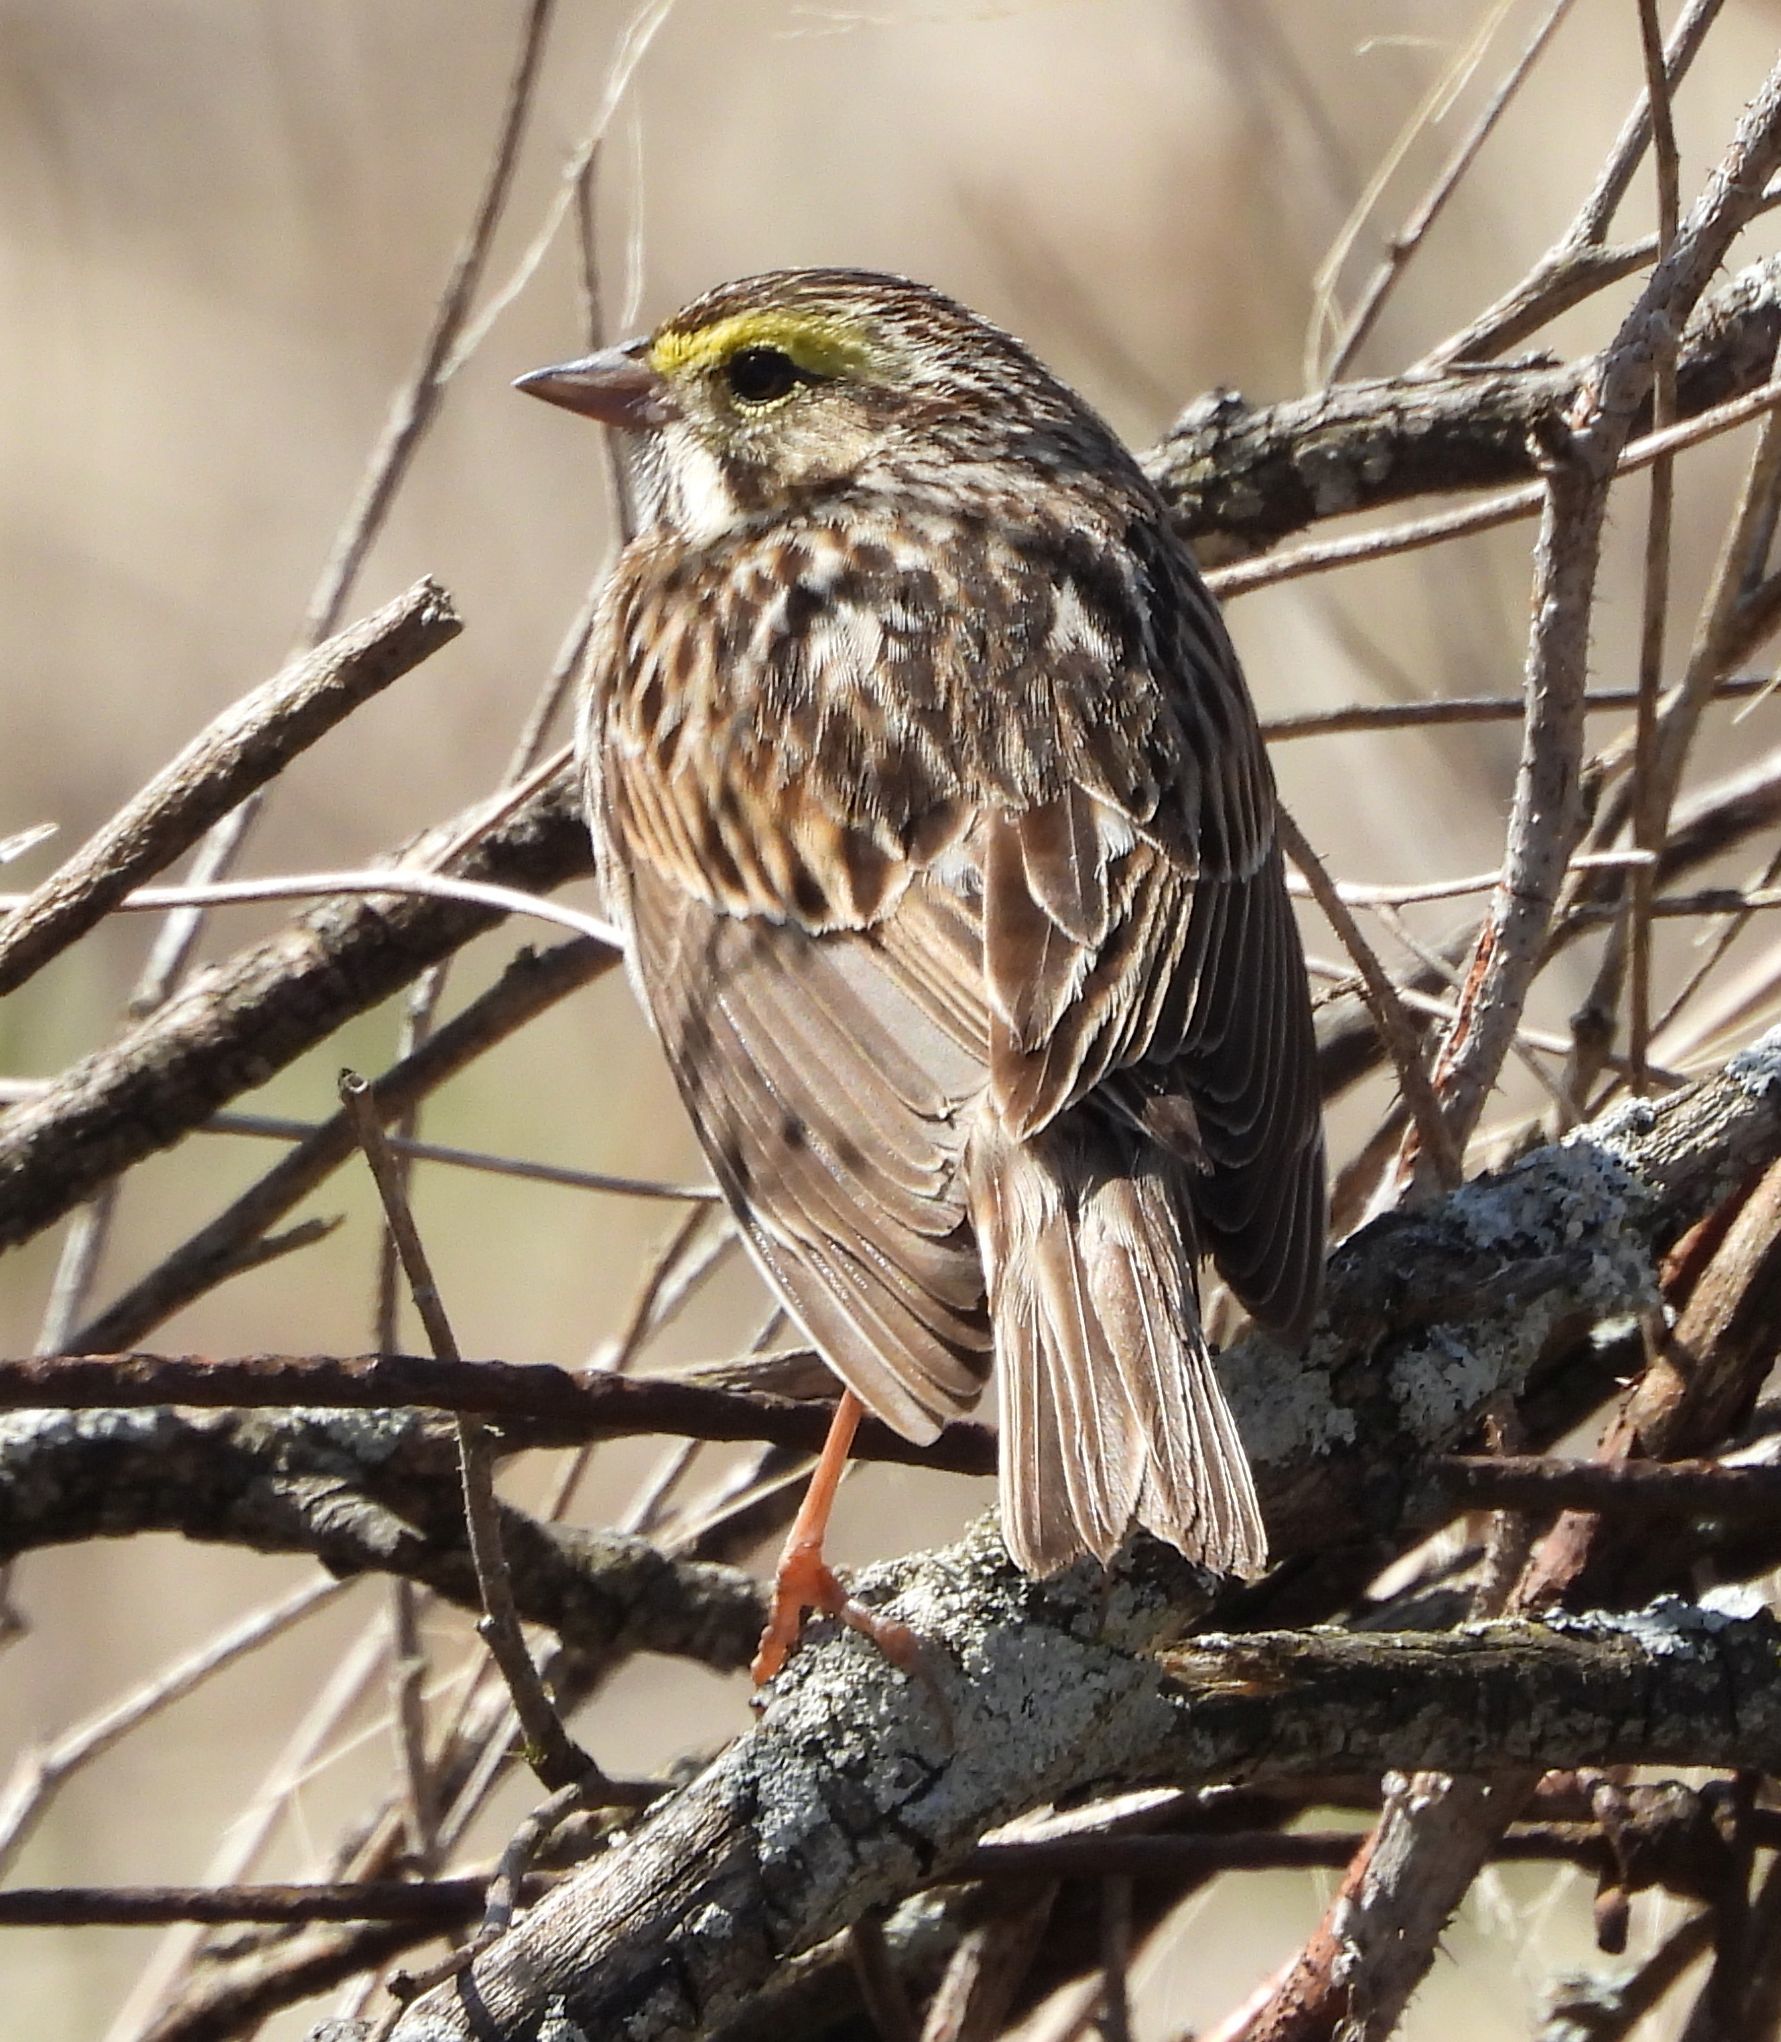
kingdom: Animalia
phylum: Chordata
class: Aves
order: Passeriformes
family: Passerellidae
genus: Passerculus
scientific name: Passerculus sandwichensis
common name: Savannah sparrow
